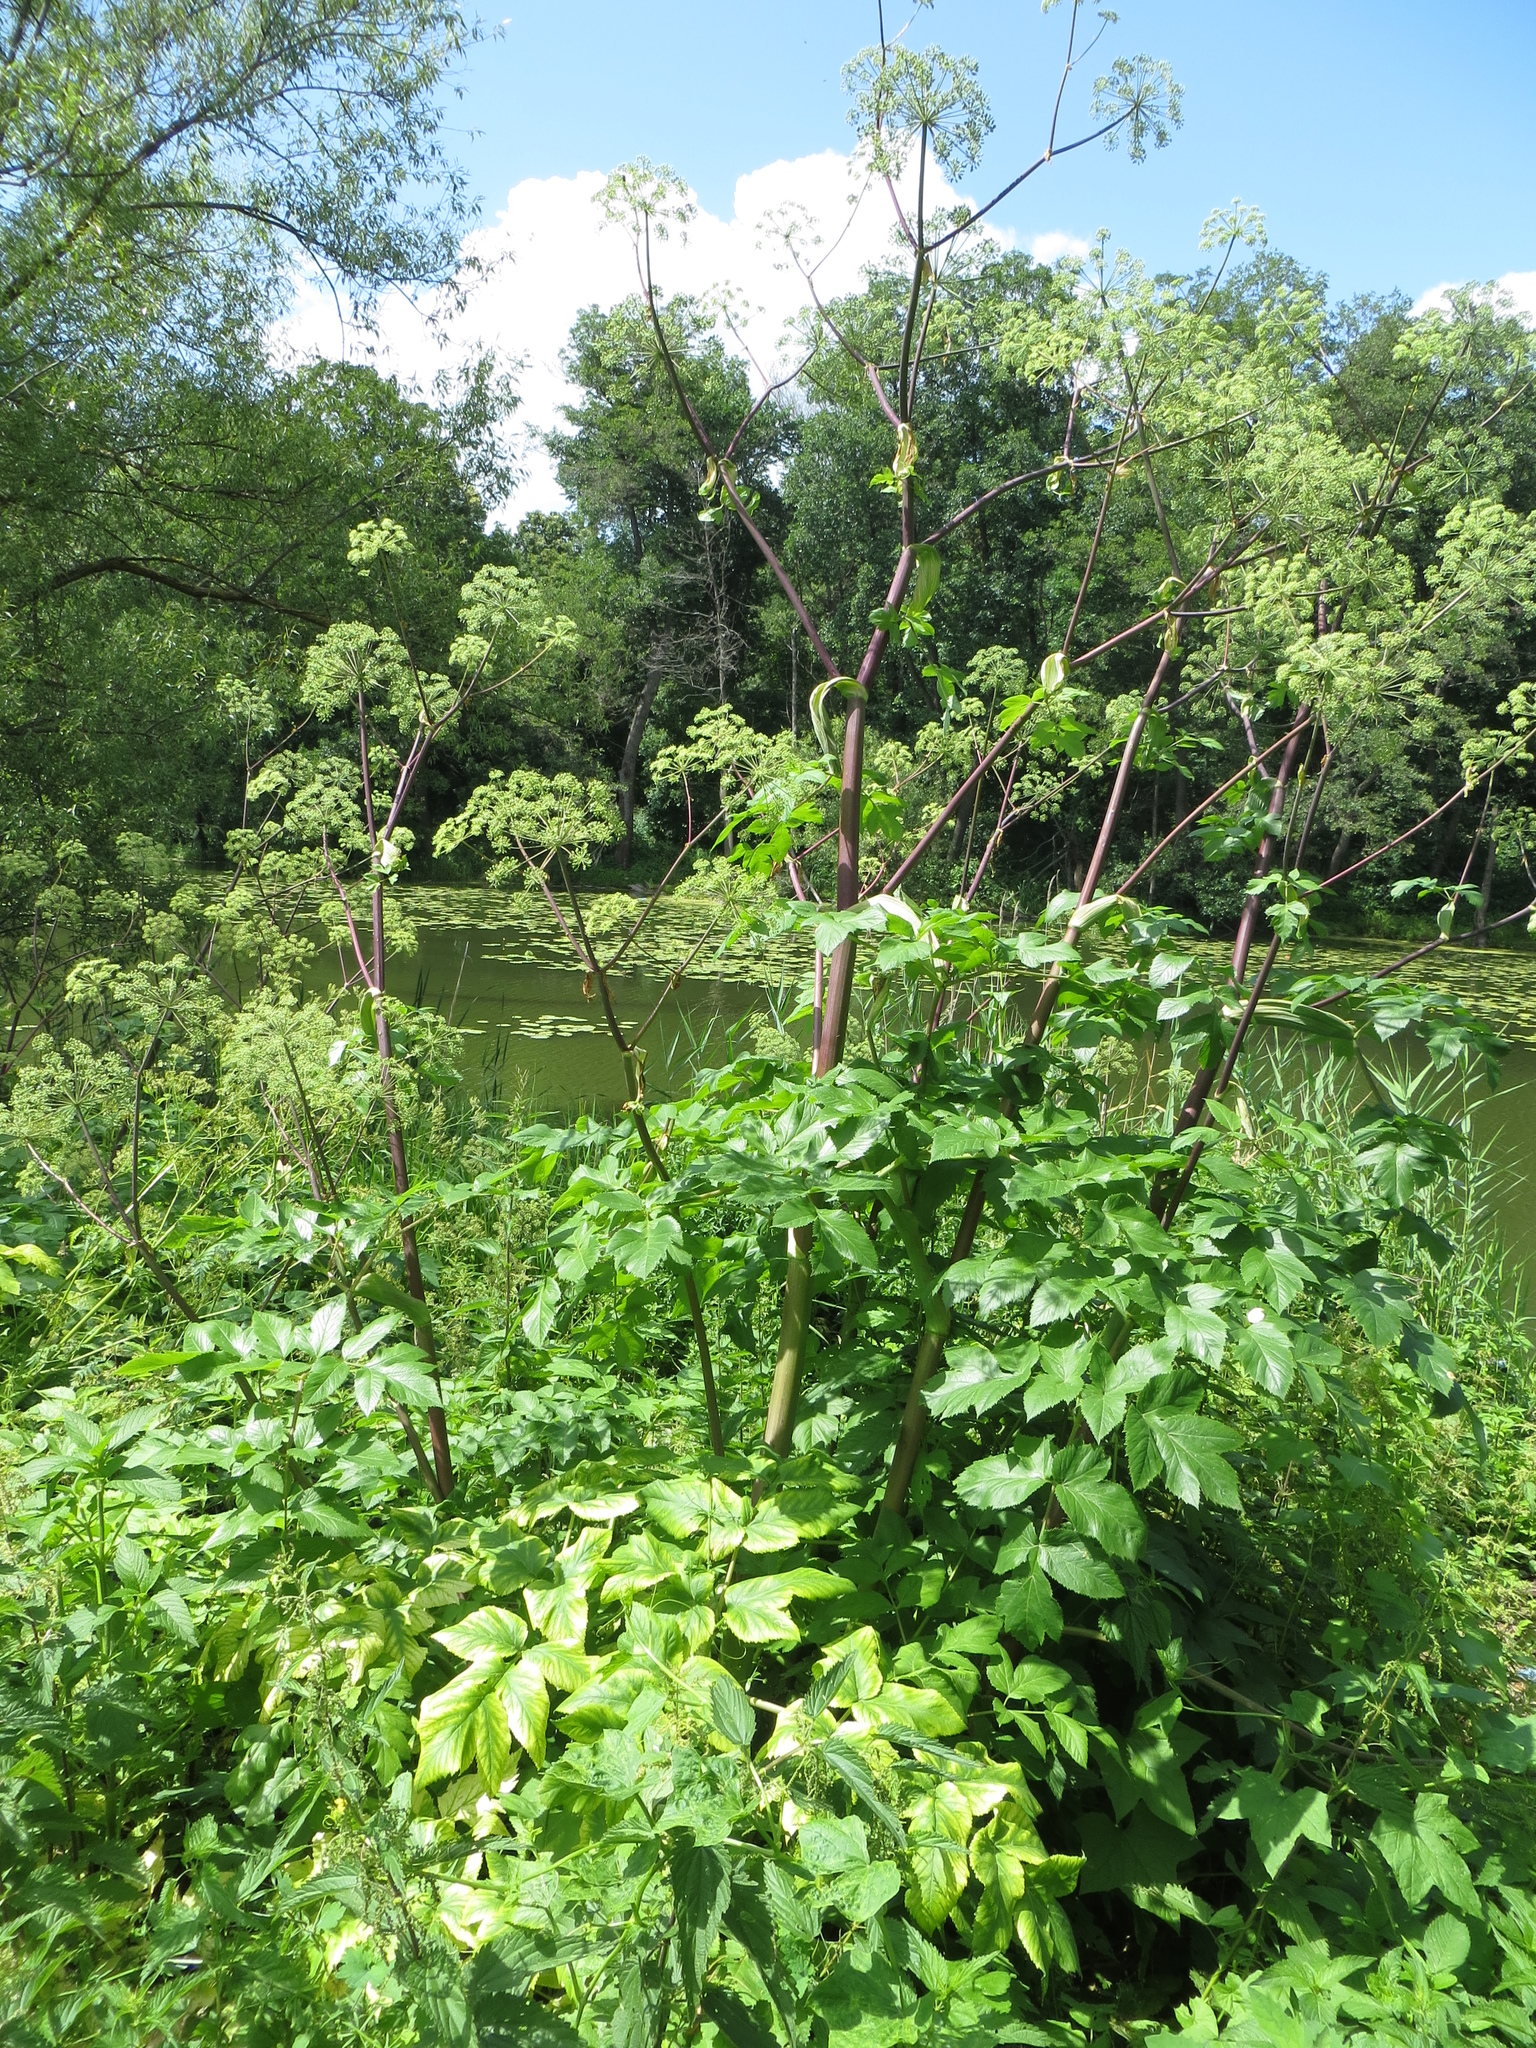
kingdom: Plantae
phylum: Tracheophyta
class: Magnoliopsida
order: Apiales
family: Apiaceae
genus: Angelica
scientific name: Angelica archangelica
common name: Garden angelica
